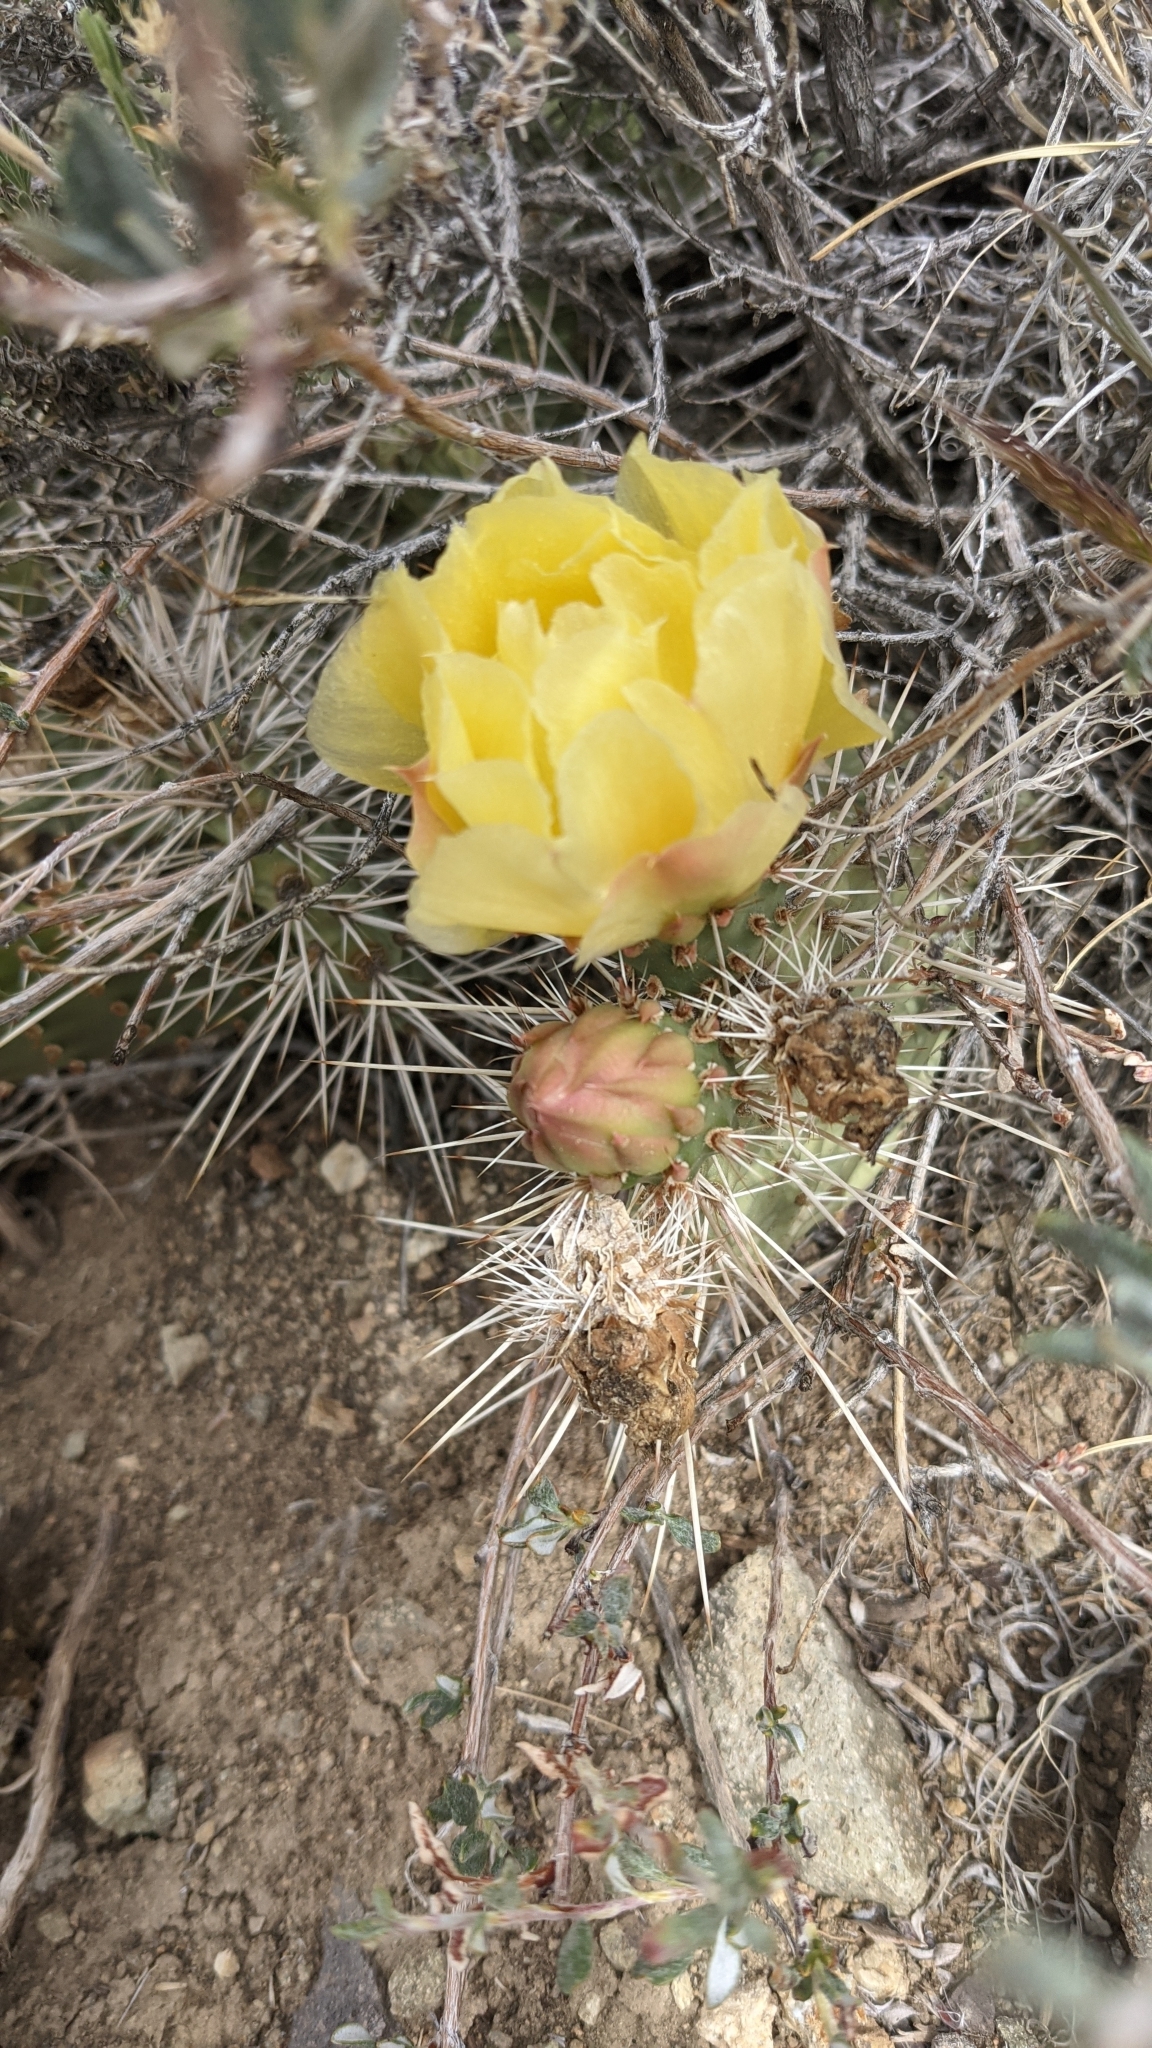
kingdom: Plantae
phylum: Tracheophyta
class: Magnoliopsida
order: Caryophyllales
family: Cactaceae
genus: Opuntia
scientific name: Opuntia polyacantha
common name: Plains prickly-pear
